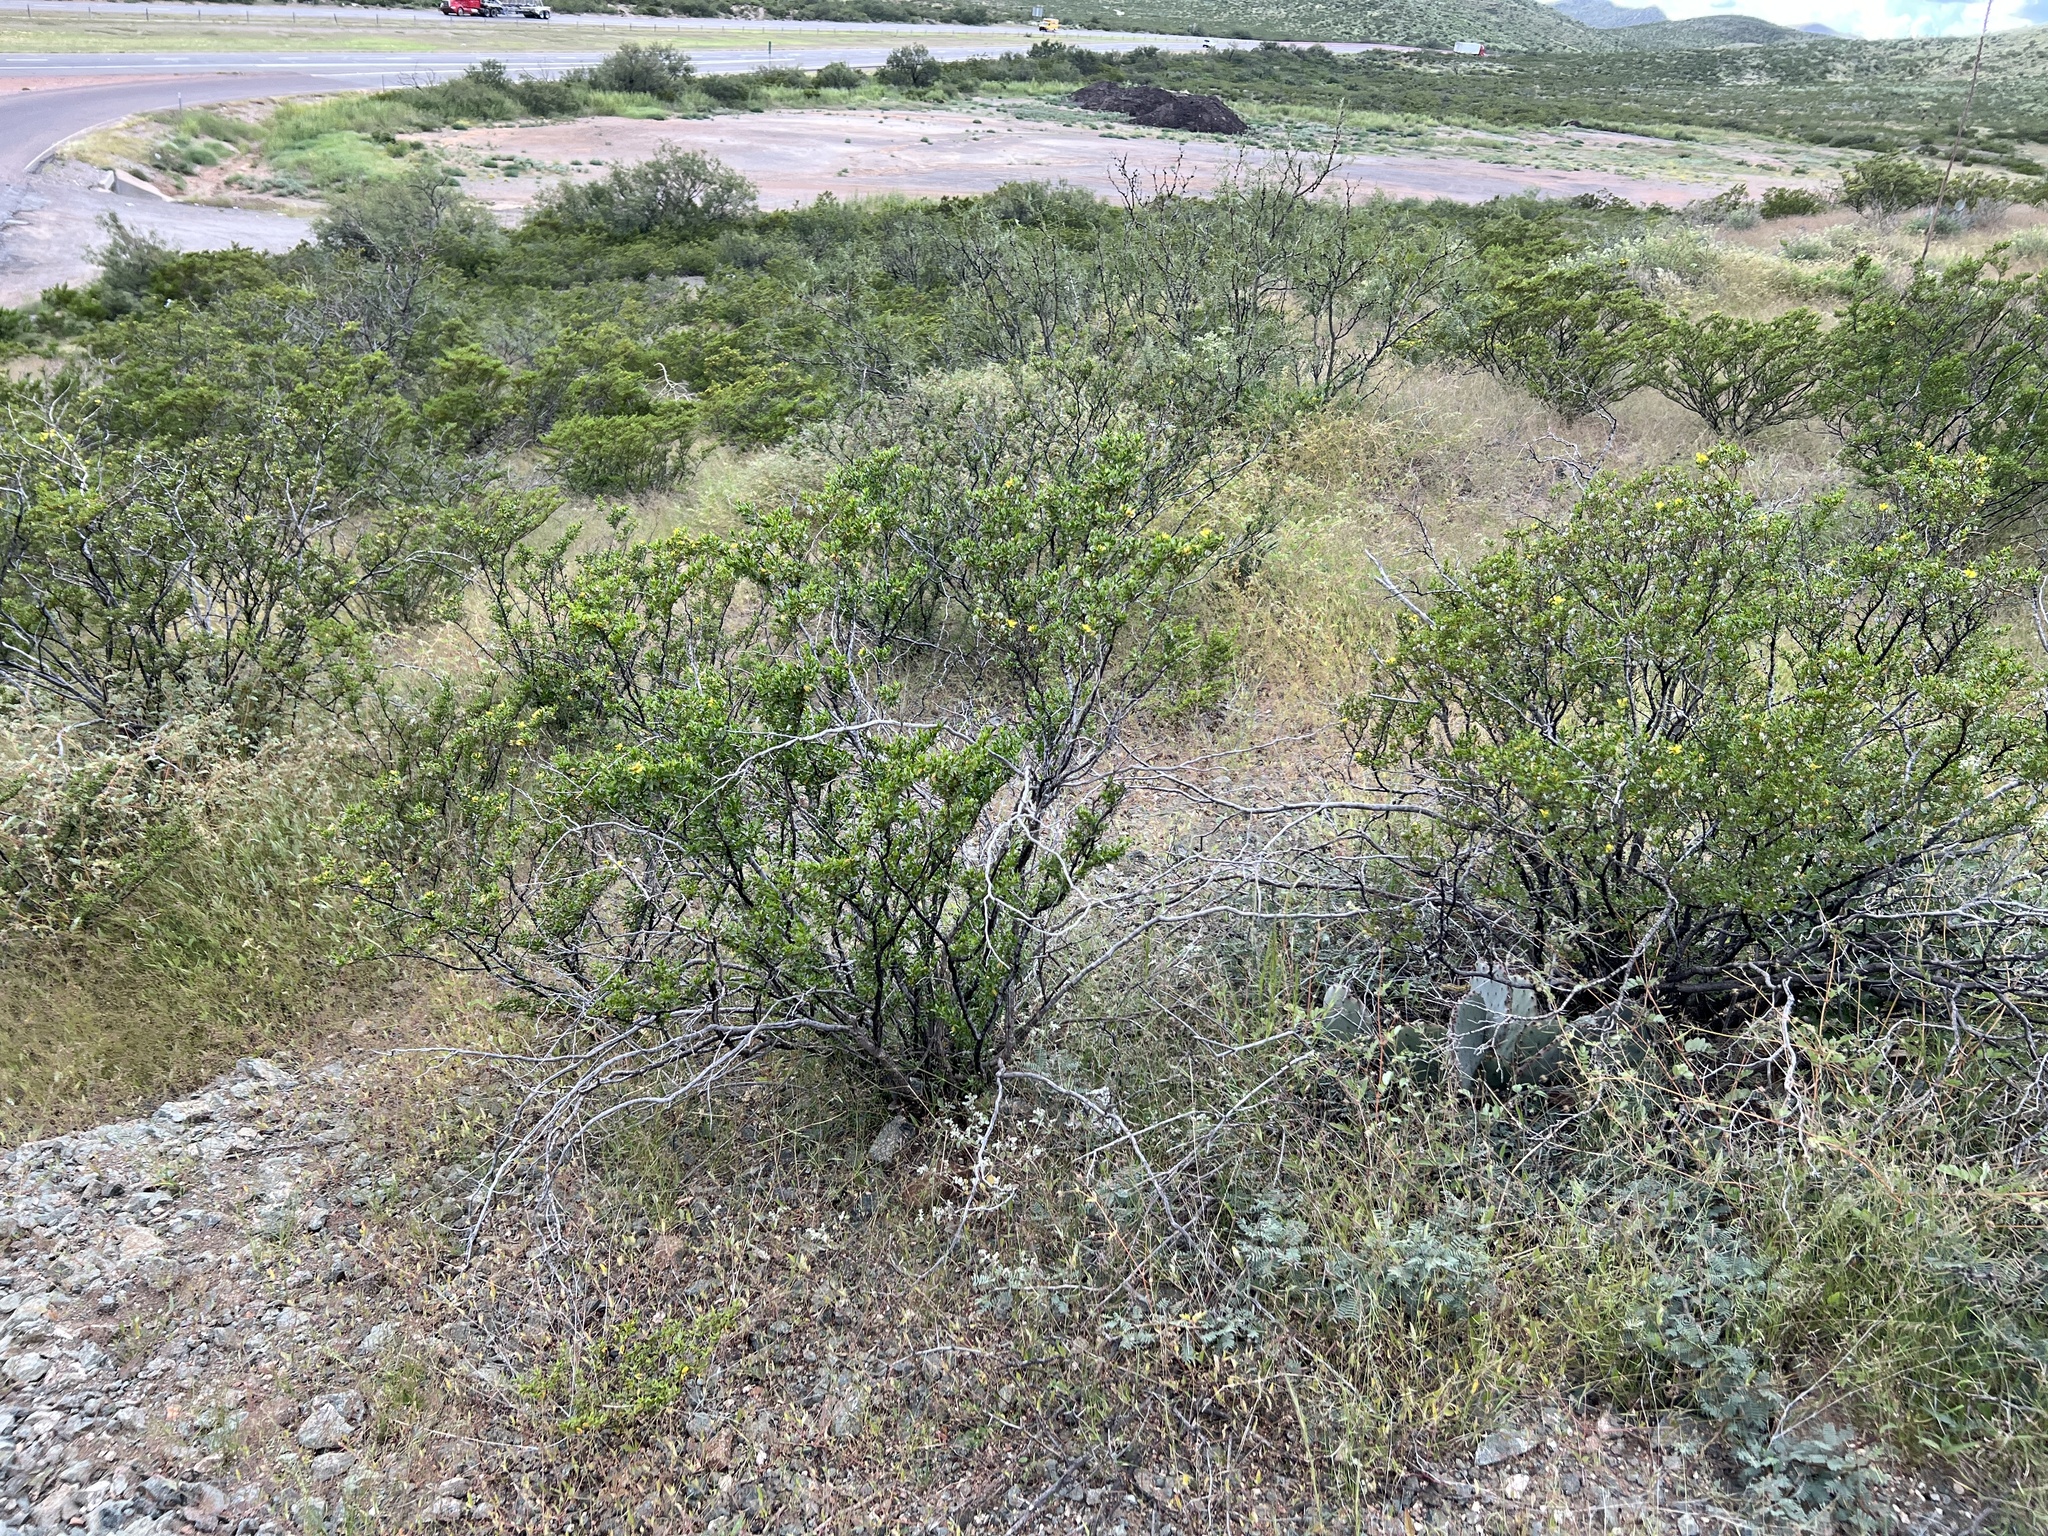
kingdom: Plantae
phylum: Tracheophyta
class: Magnoliopsida
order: Zygophyllales
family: Zygophyllaceae
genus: Larrea
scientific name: Larrea tridentata
